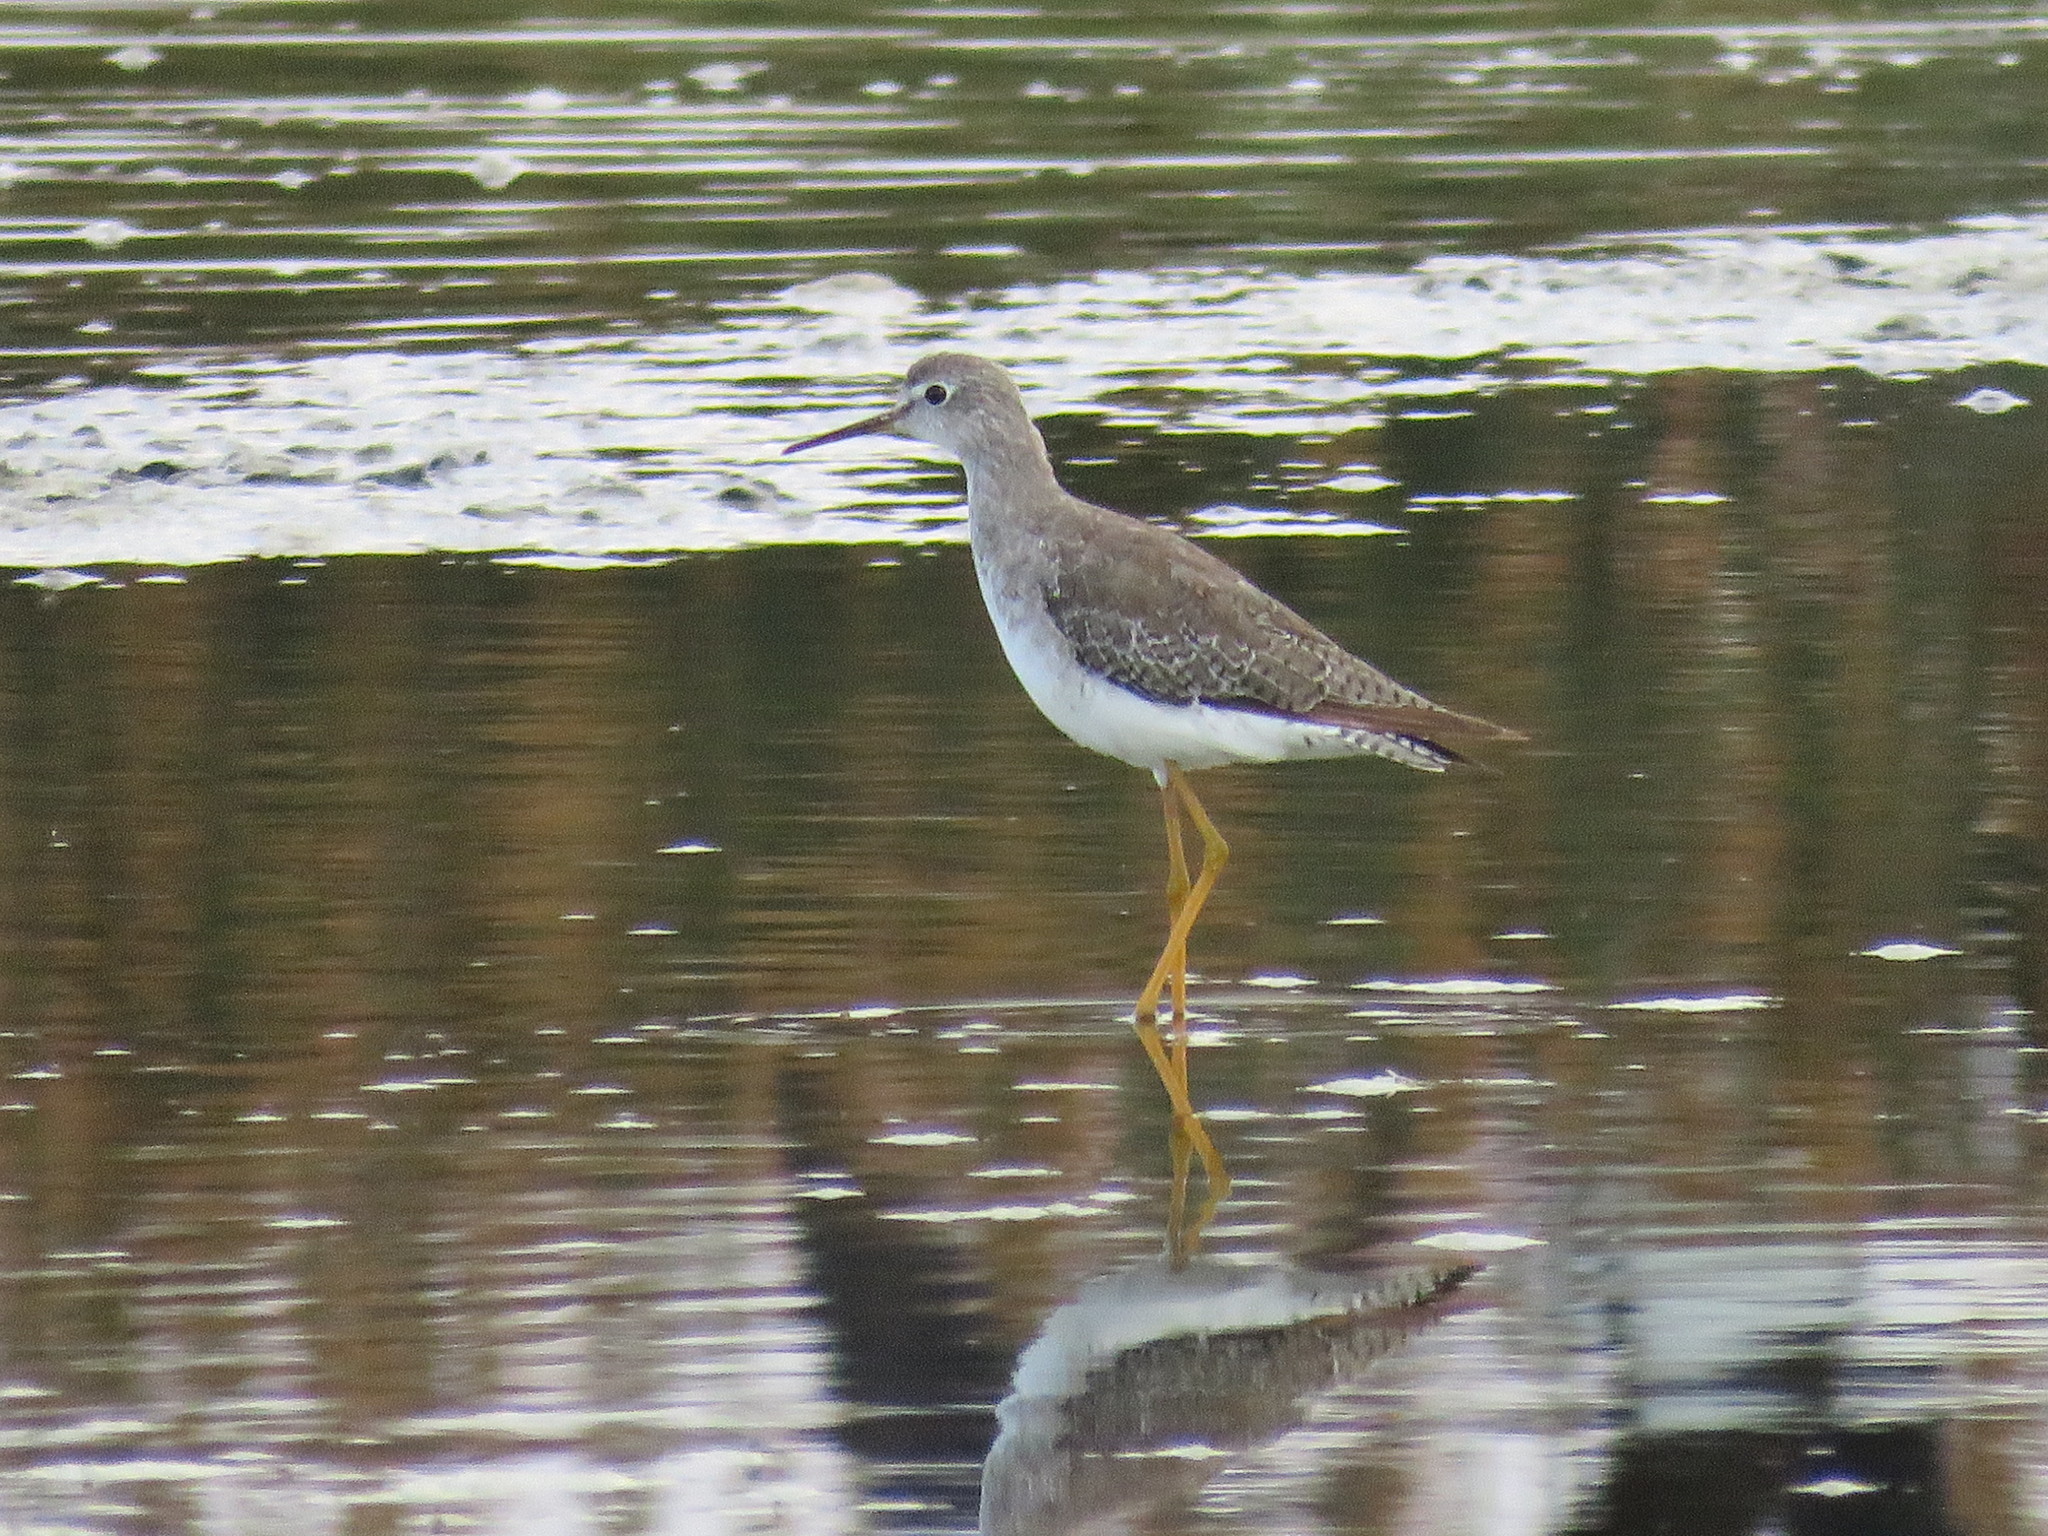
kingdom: Animalia
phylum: Chordata
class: Aves
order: Charadriiformes
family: Scolopacidae
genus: Tringa
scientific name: Tringa flavipes
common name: Lesser yellowlegs
